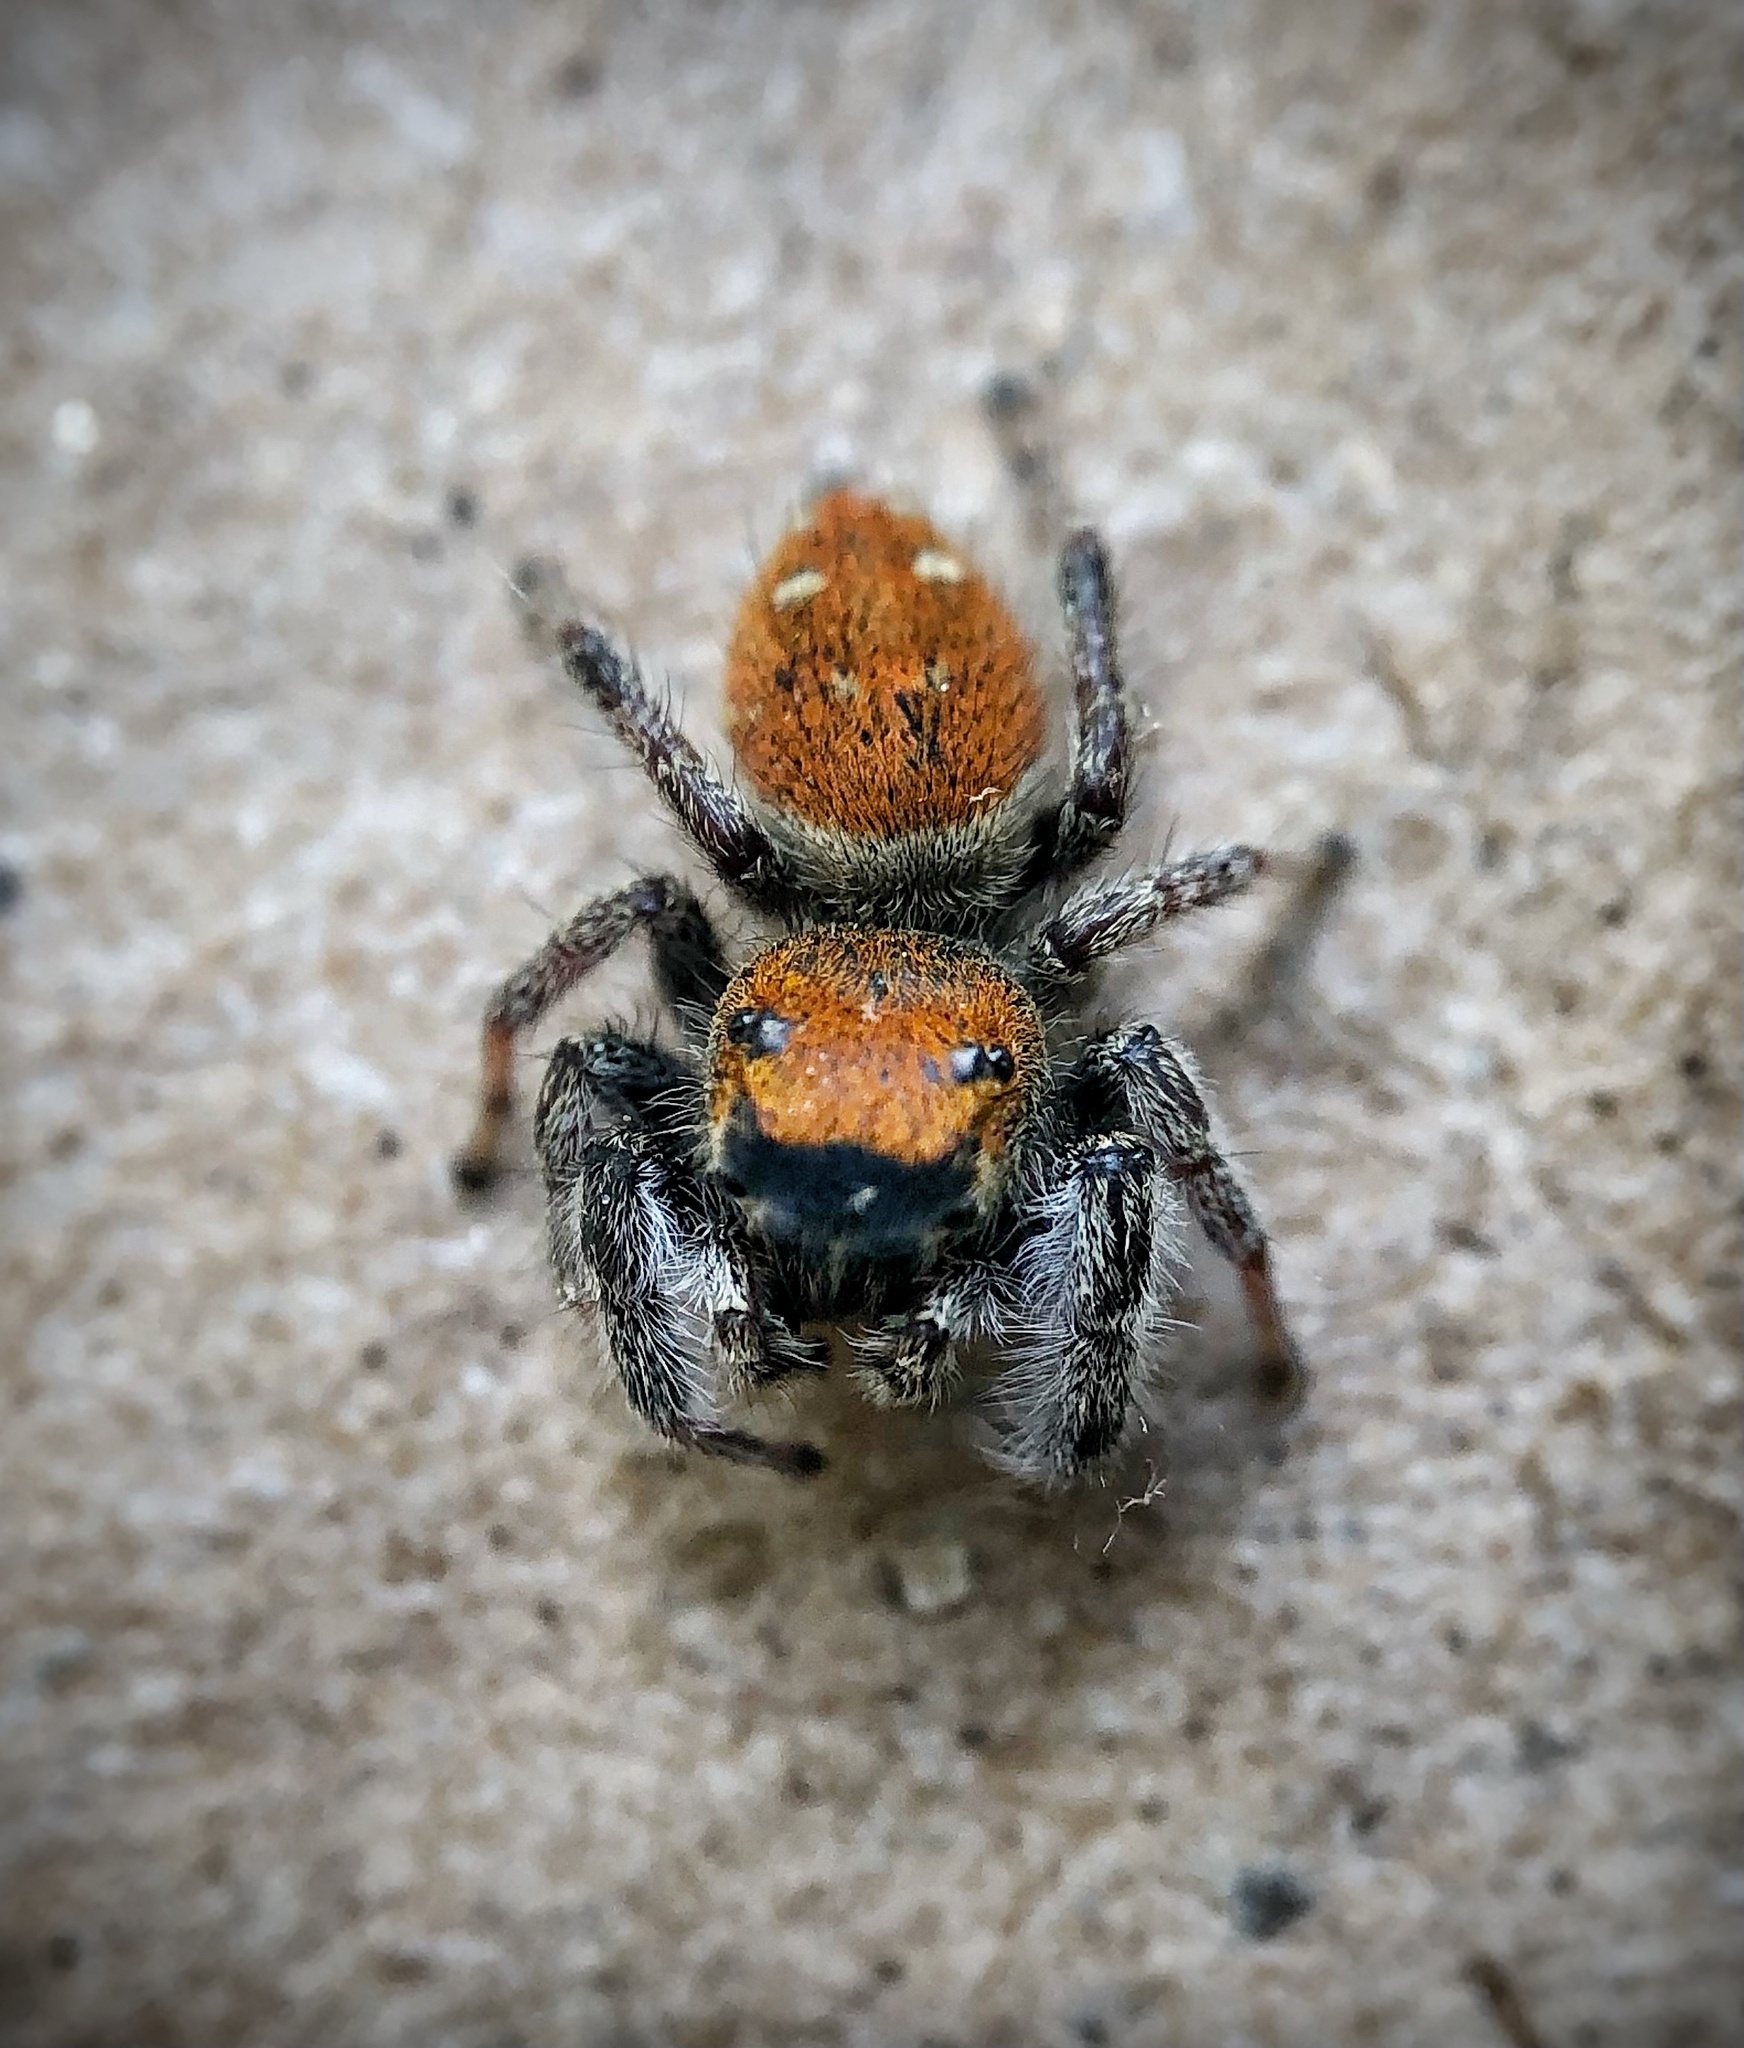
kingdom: Animalia
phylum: Arthropoda
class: Arachnida
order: Araneae
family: Salticidae
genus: Phidippus
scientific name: Phidippus whitmani
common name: Whitman's jumping spider
